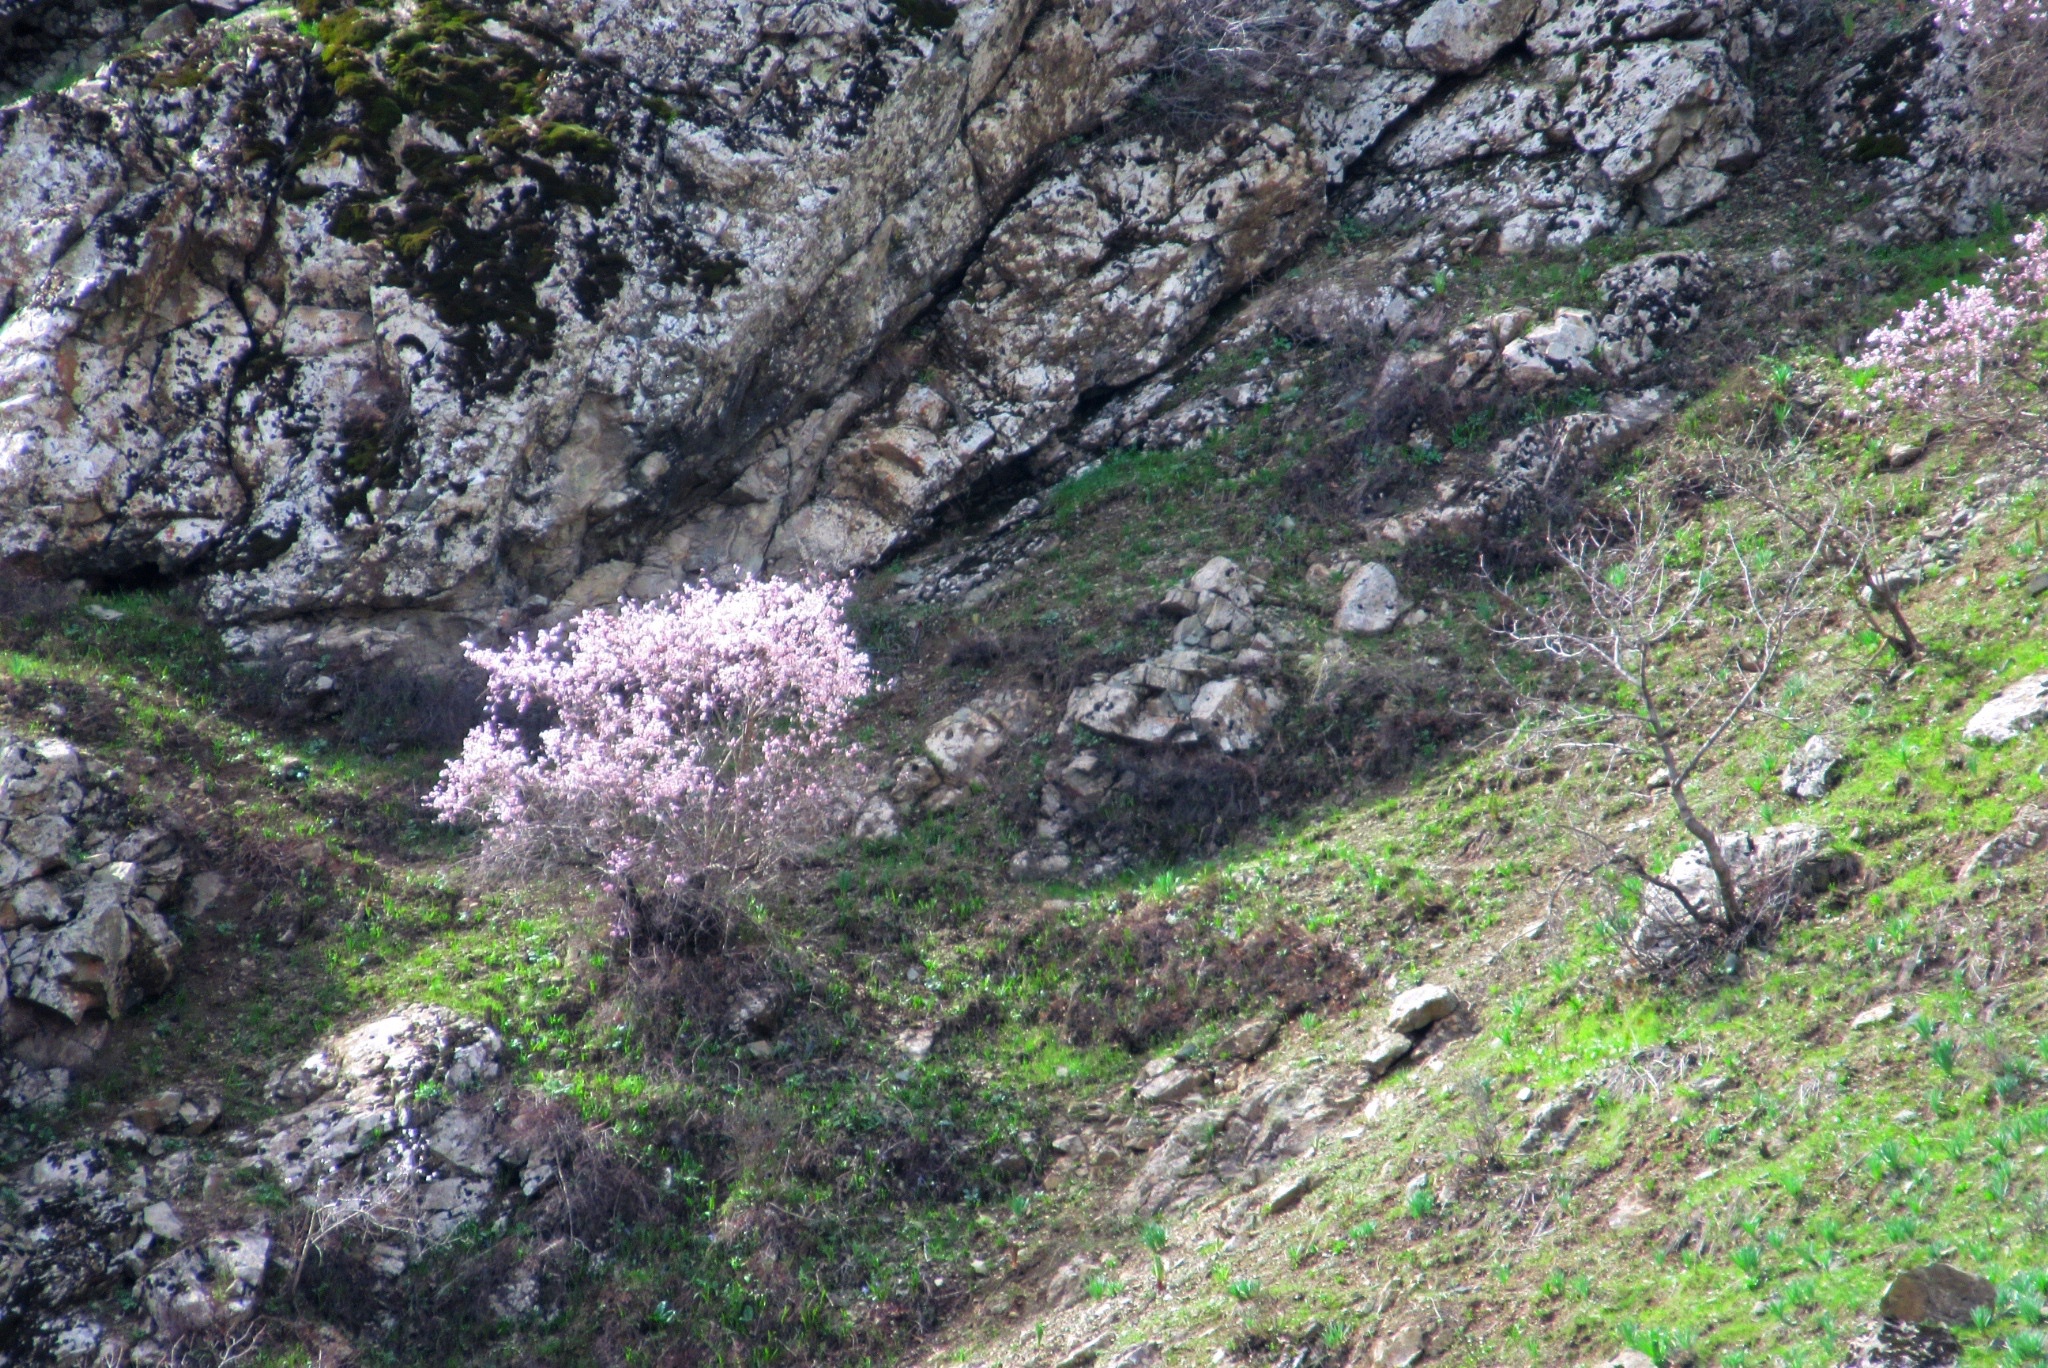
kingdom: Plantae
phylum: Tracheophyta
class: Magnoliopsida
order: Rosales
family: Rosaceae
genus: Prunus
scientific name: Prunus bucharica
